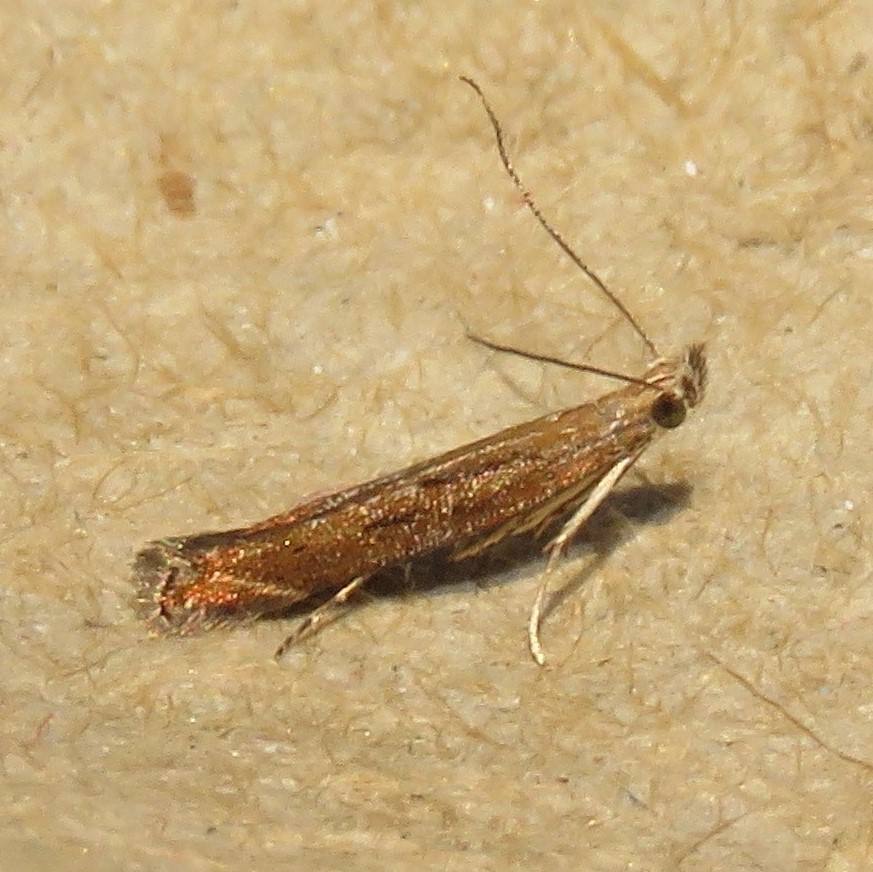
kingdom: Animalia
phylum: Arthropoda
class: Insecta
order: Lepidoptera
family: Gelechiidae
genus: Isophrictis
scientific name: Isophrictis anteliella
